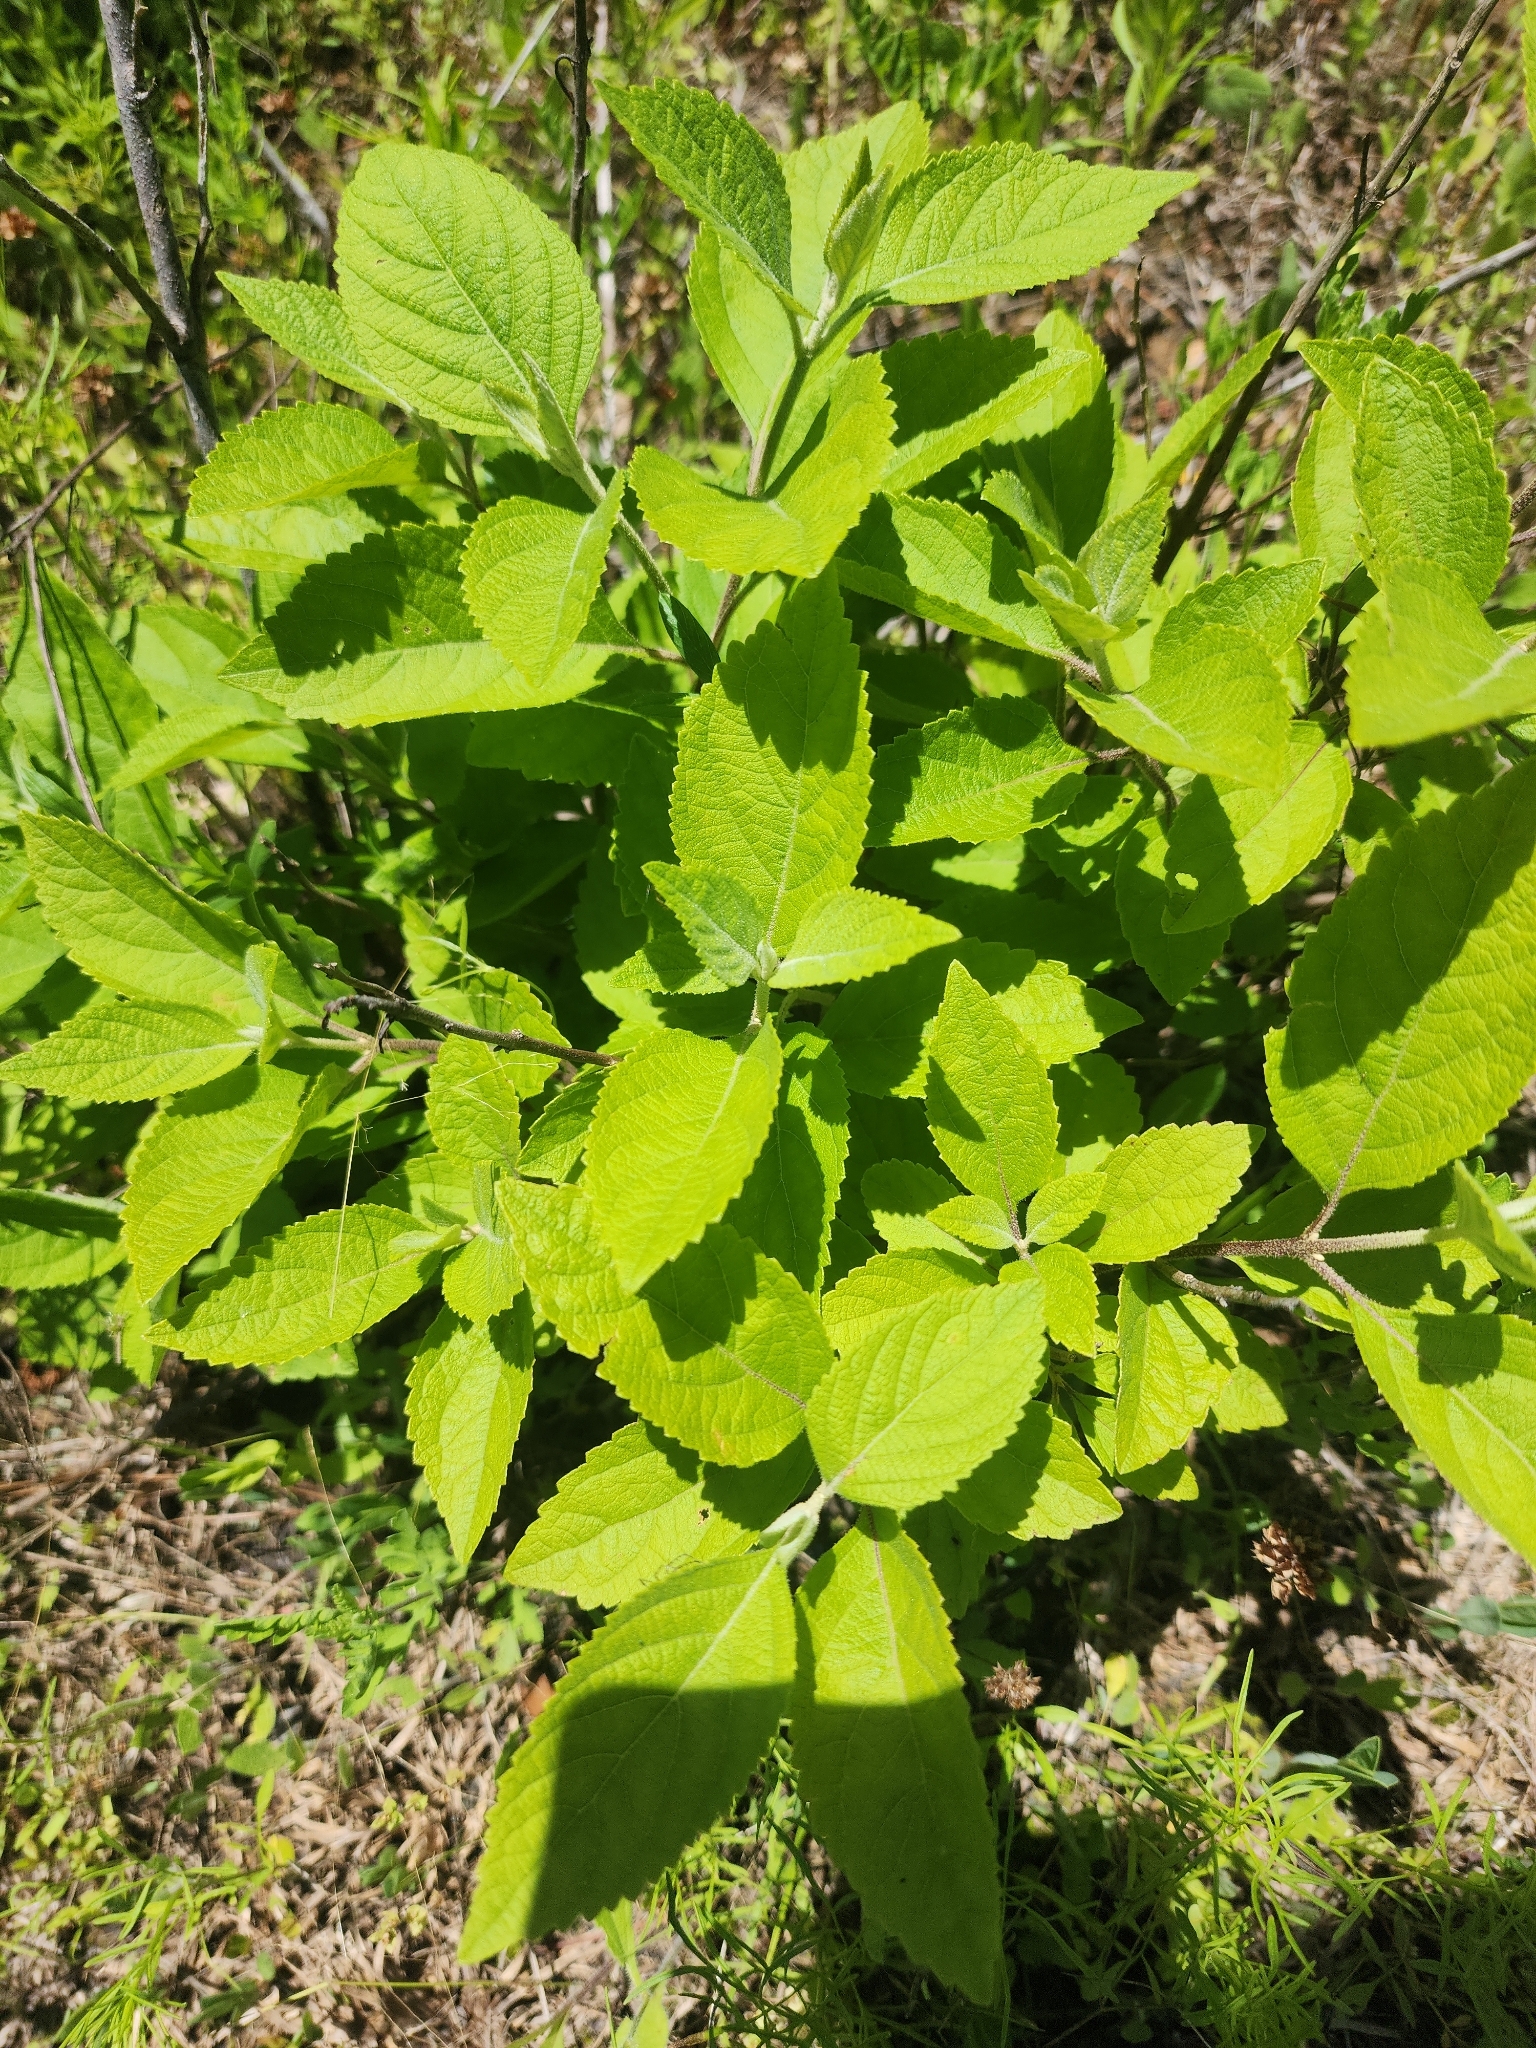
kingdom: Plantae
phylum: Tracheophyta
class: Magnoliopsida
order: Lamiales
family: Lamiaceae
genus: Callicarpa
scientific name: Callicarpa americana
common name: American beautyberry
